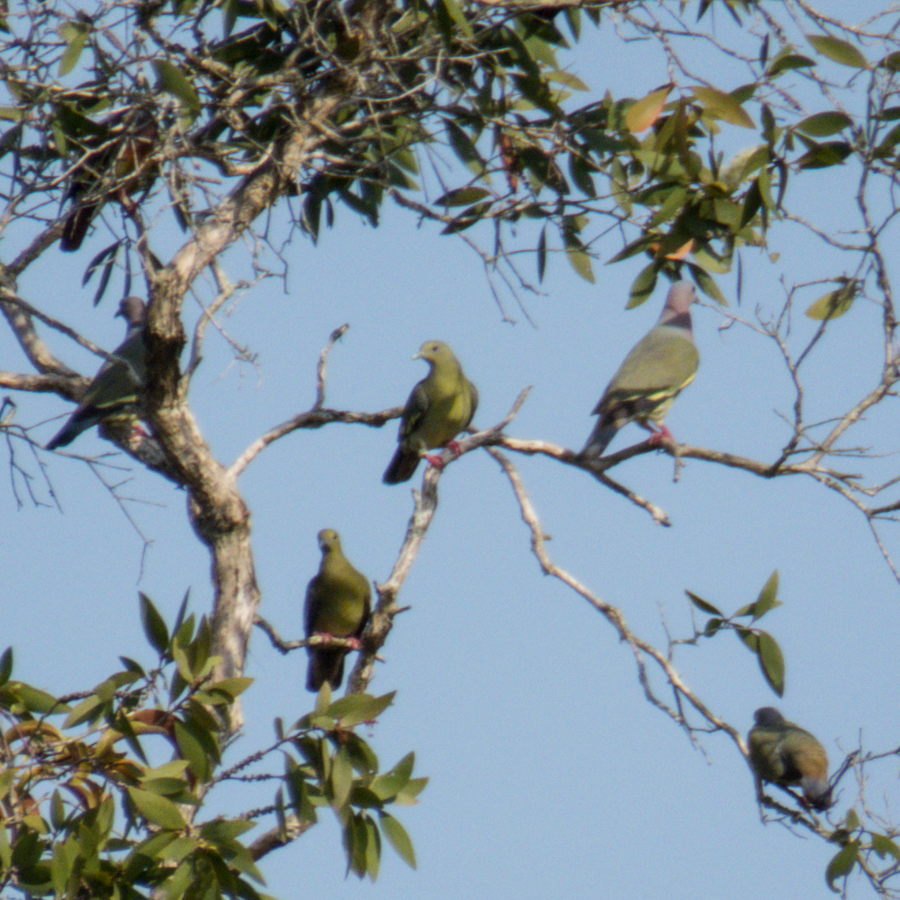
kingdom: Animalia
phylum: Chordata
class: Aves
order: Columbiformes
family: Columbidae
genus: Treron
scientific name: Treron vernans
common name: Pink-necked green pigeon
